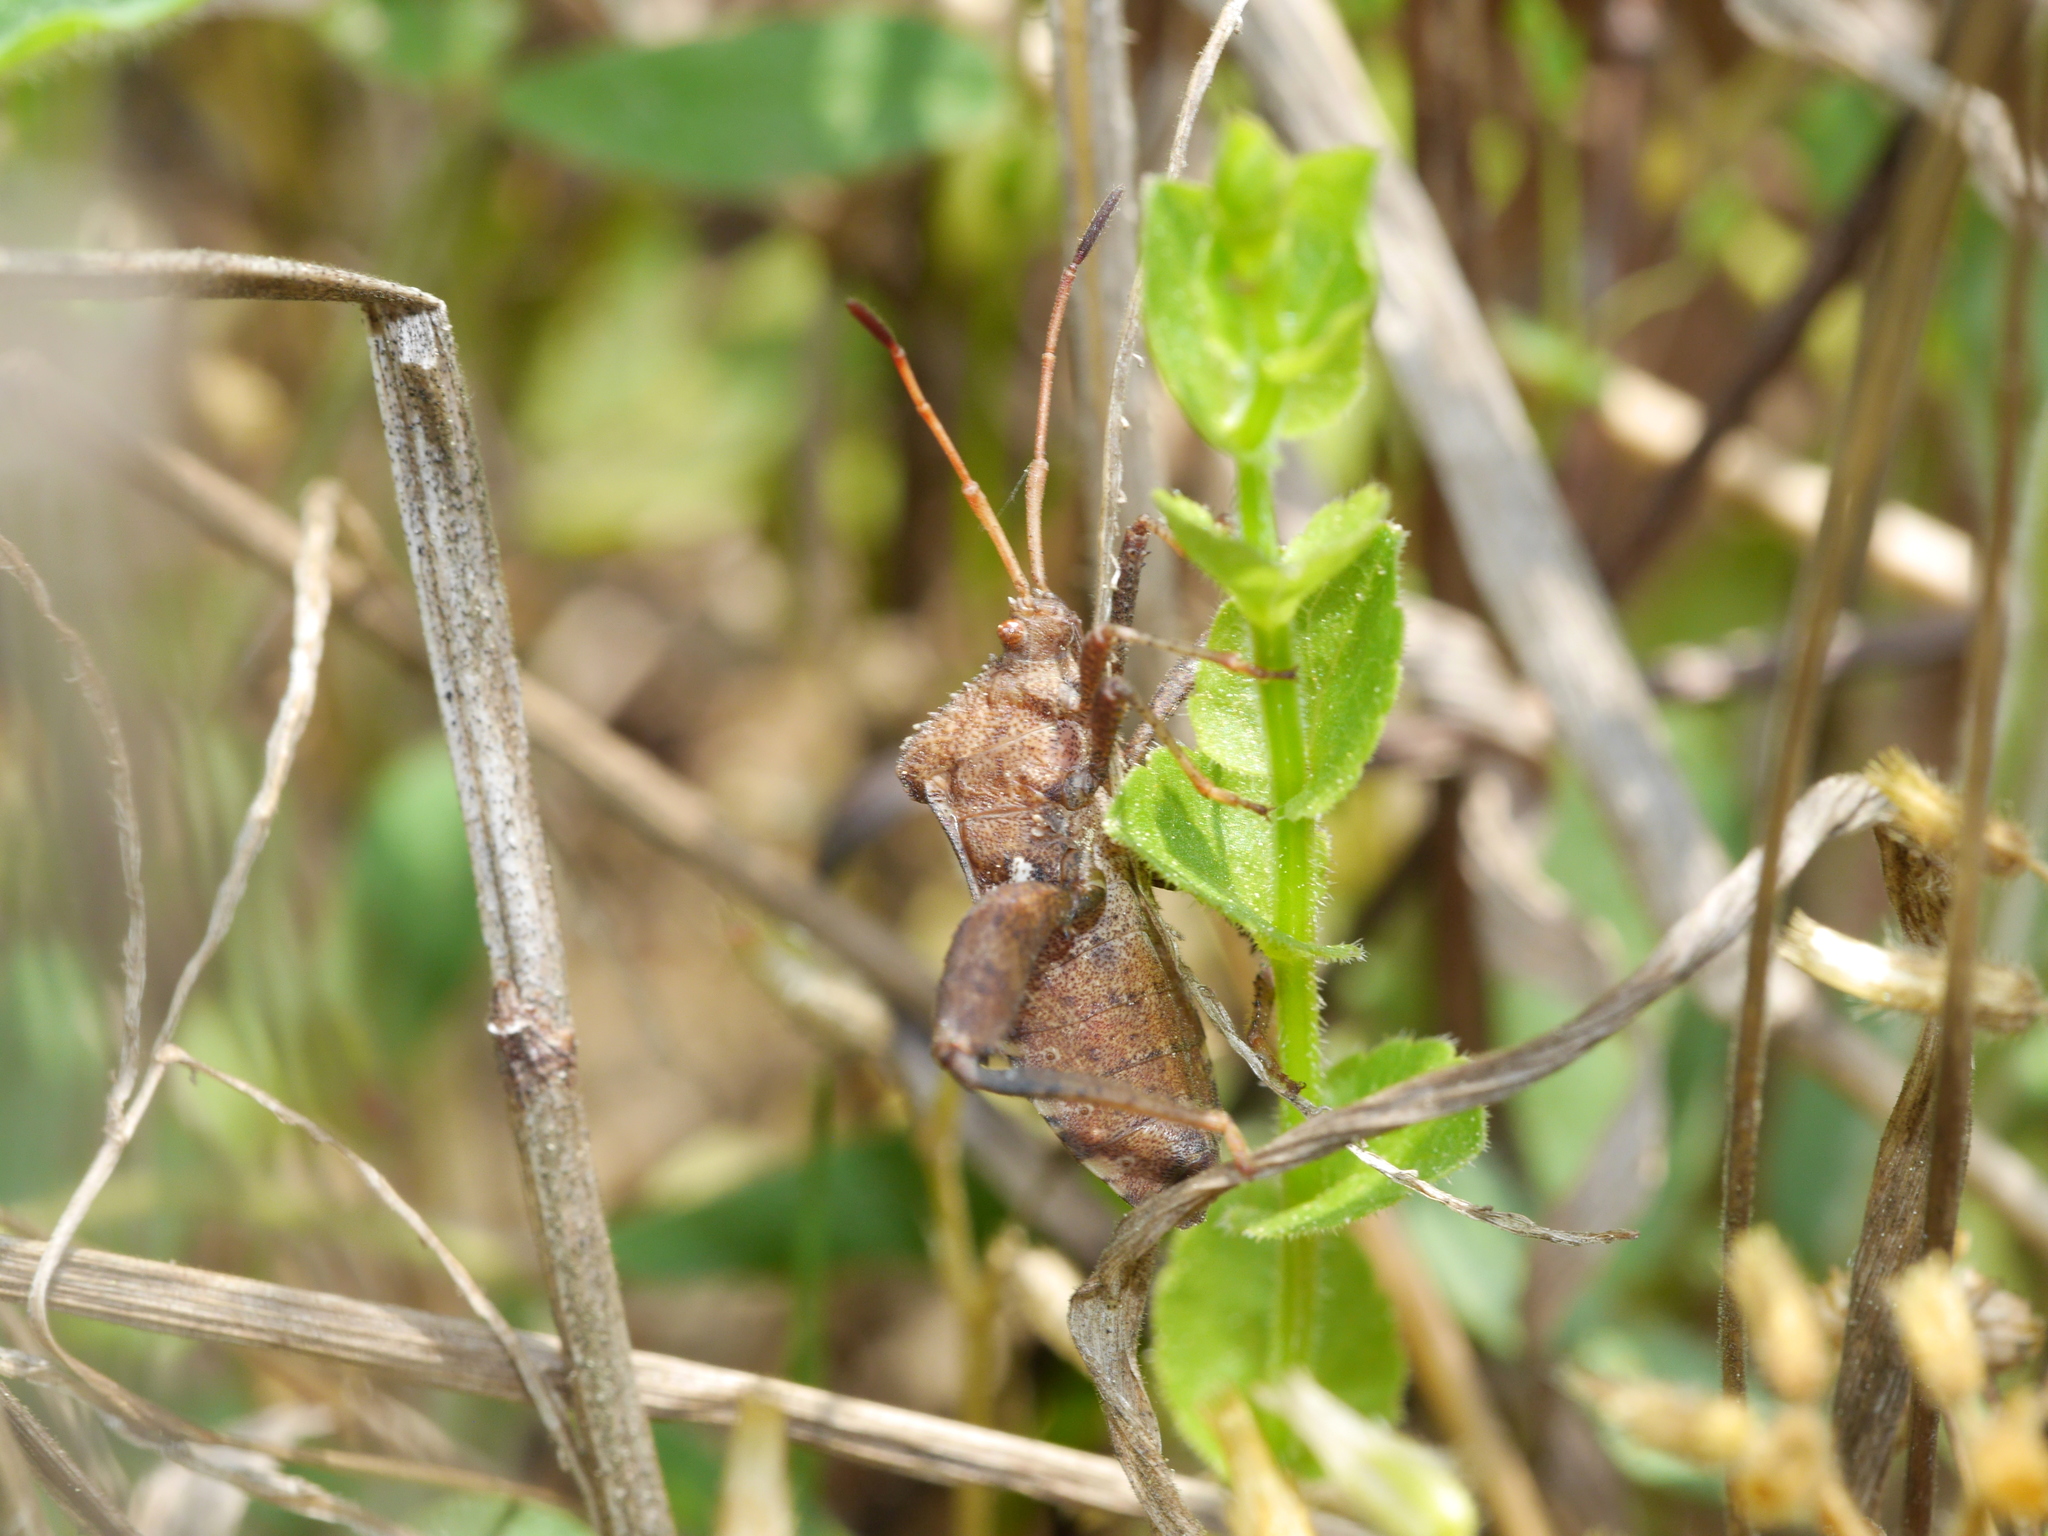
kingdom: Animalia
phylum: Arthropoda
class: Insecta
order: Hemiptera
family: Coreidae
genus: Euthochtha
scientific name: Euthochtha galeator
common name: Helmeted squash bug
